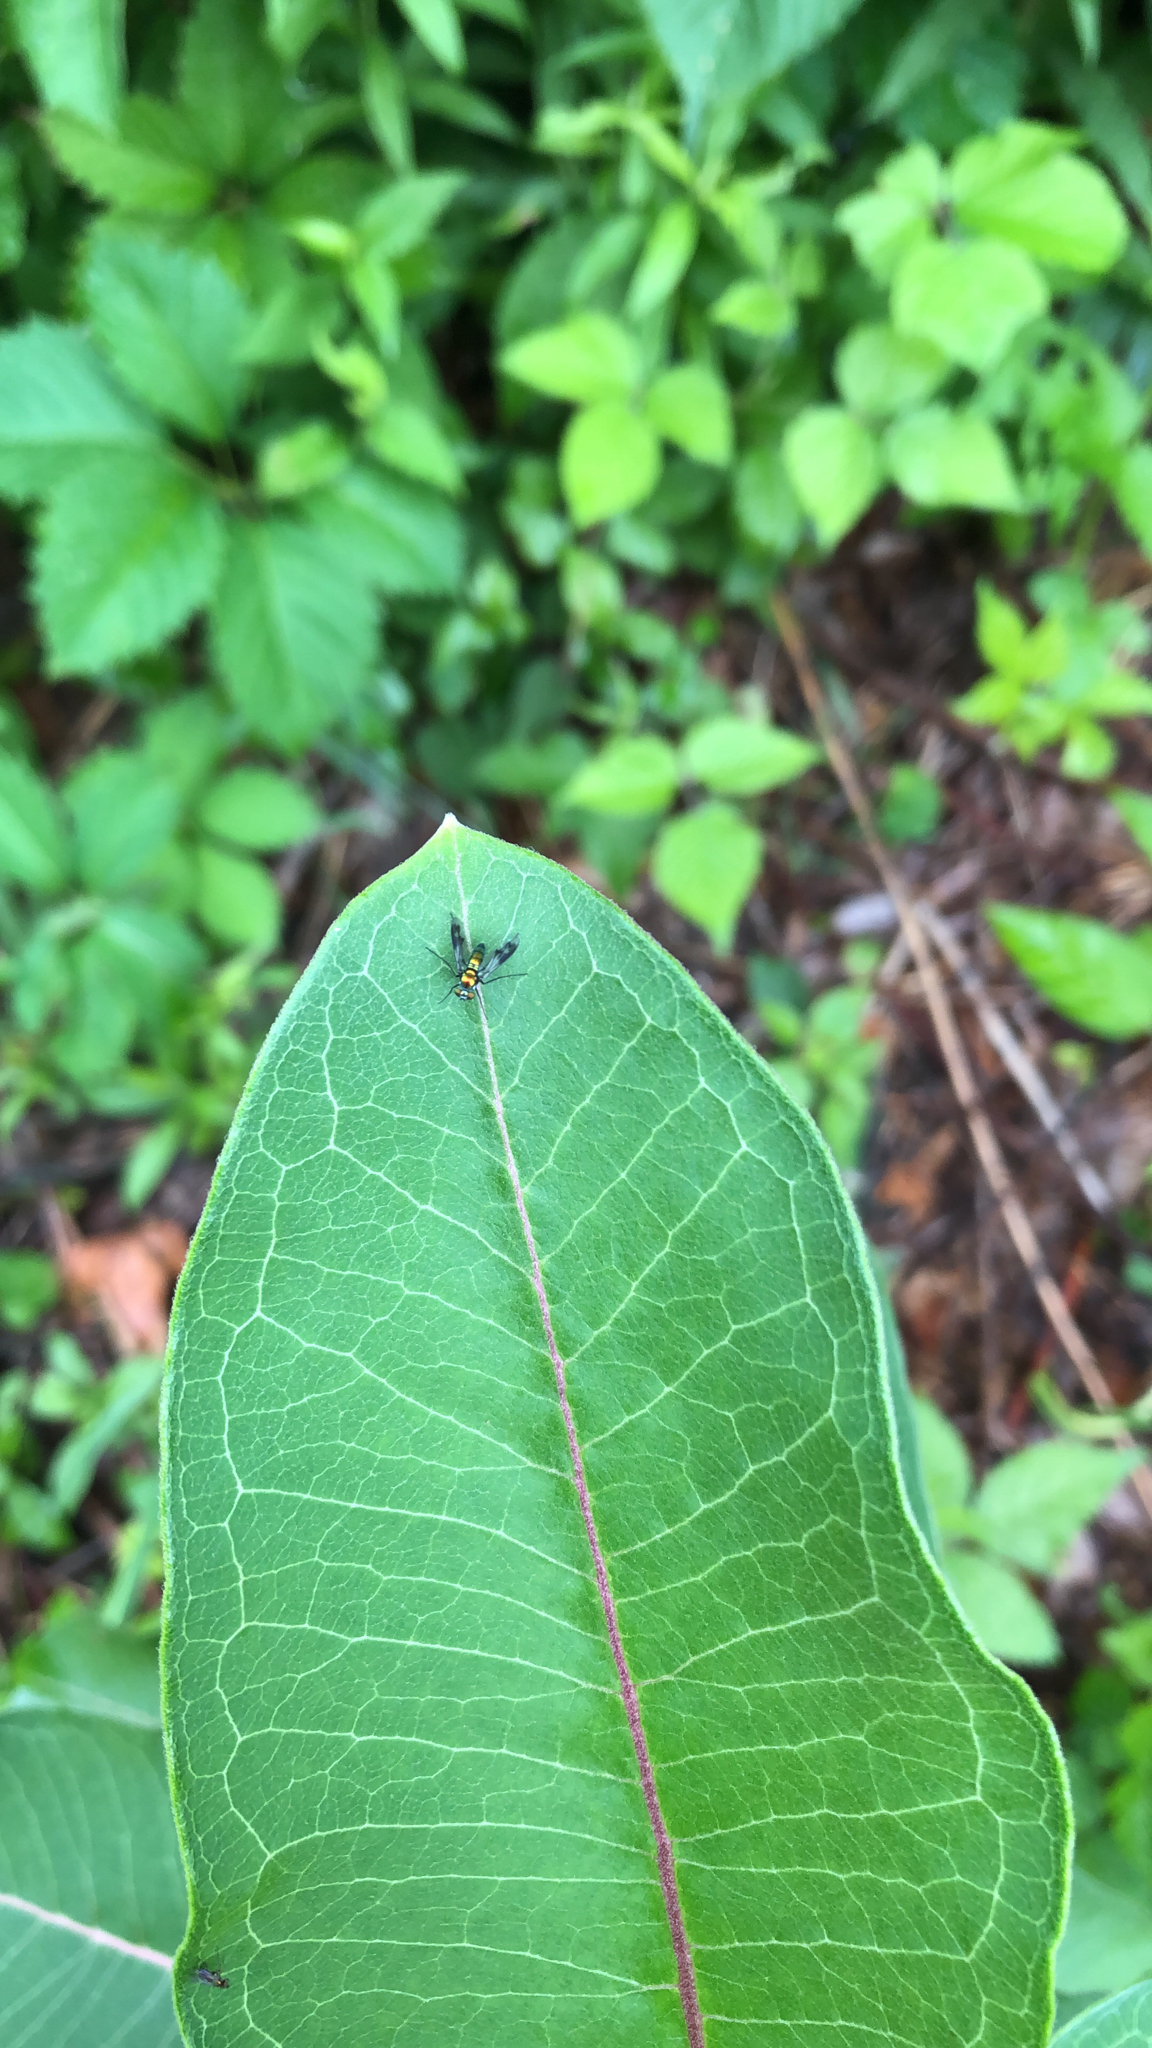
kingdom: Animalia
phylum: Arthropoda
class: Insecta
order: Diptera
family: Dolichopodidae
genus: Condylostylus
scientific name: Condylostylus patibulatus
